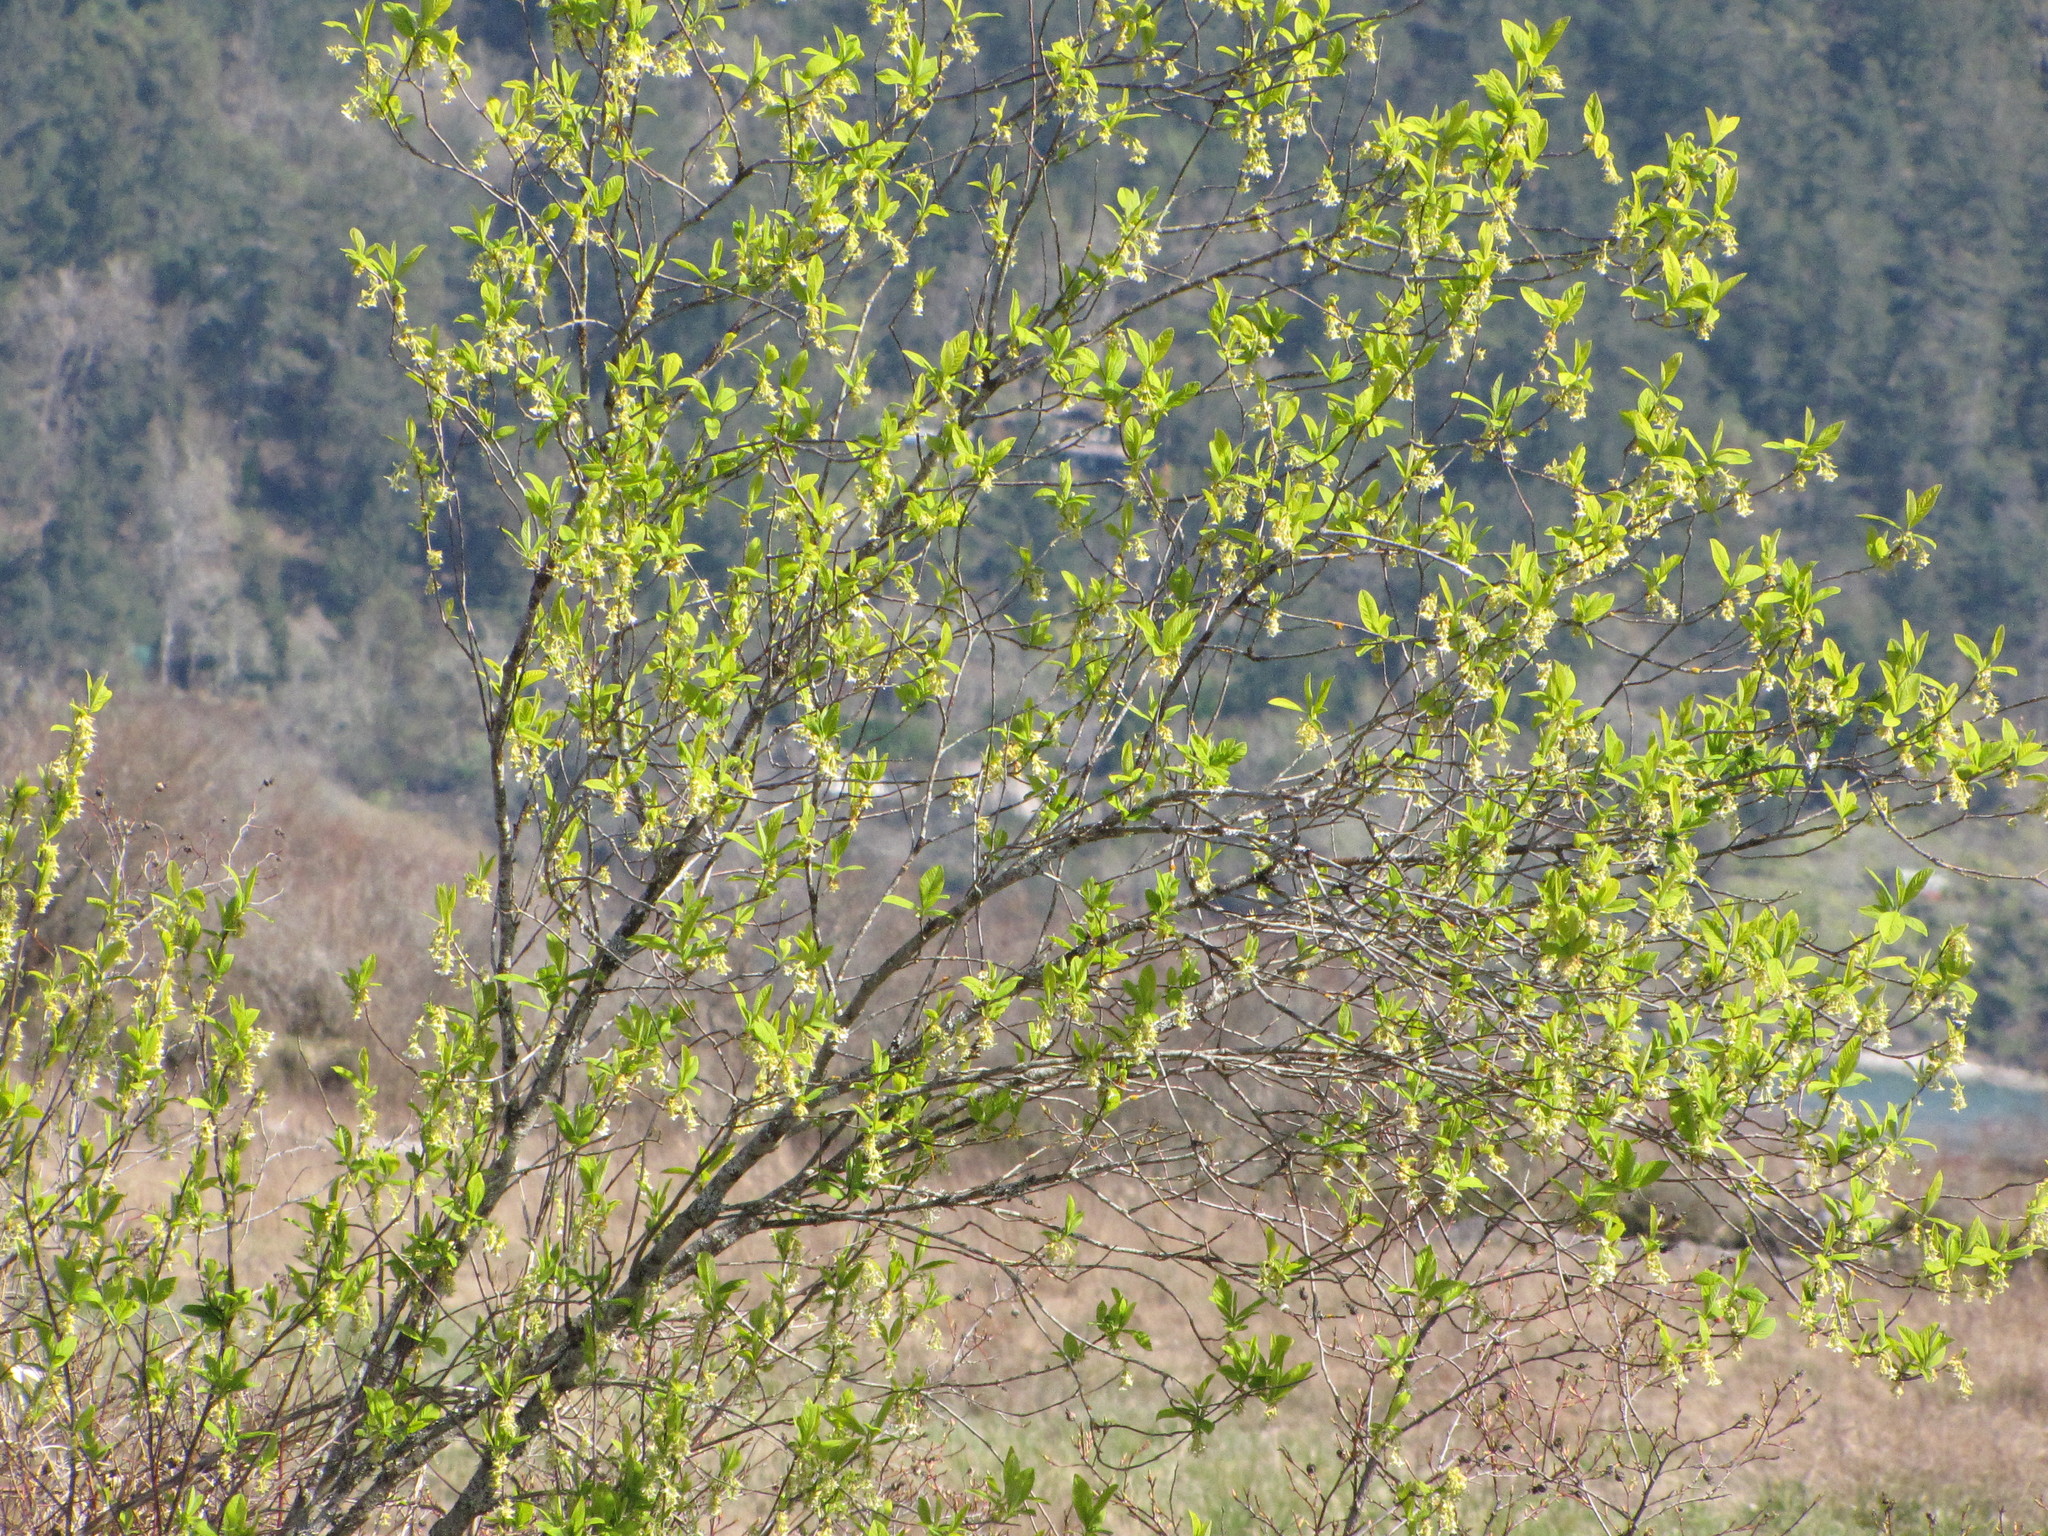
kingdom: Plantae
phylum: Tracheophyta
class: Magnoliopsida
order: Rosales
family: Rosaceae
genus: Oemleria
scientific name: Oemleria cerasiformis
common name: Osoberry
